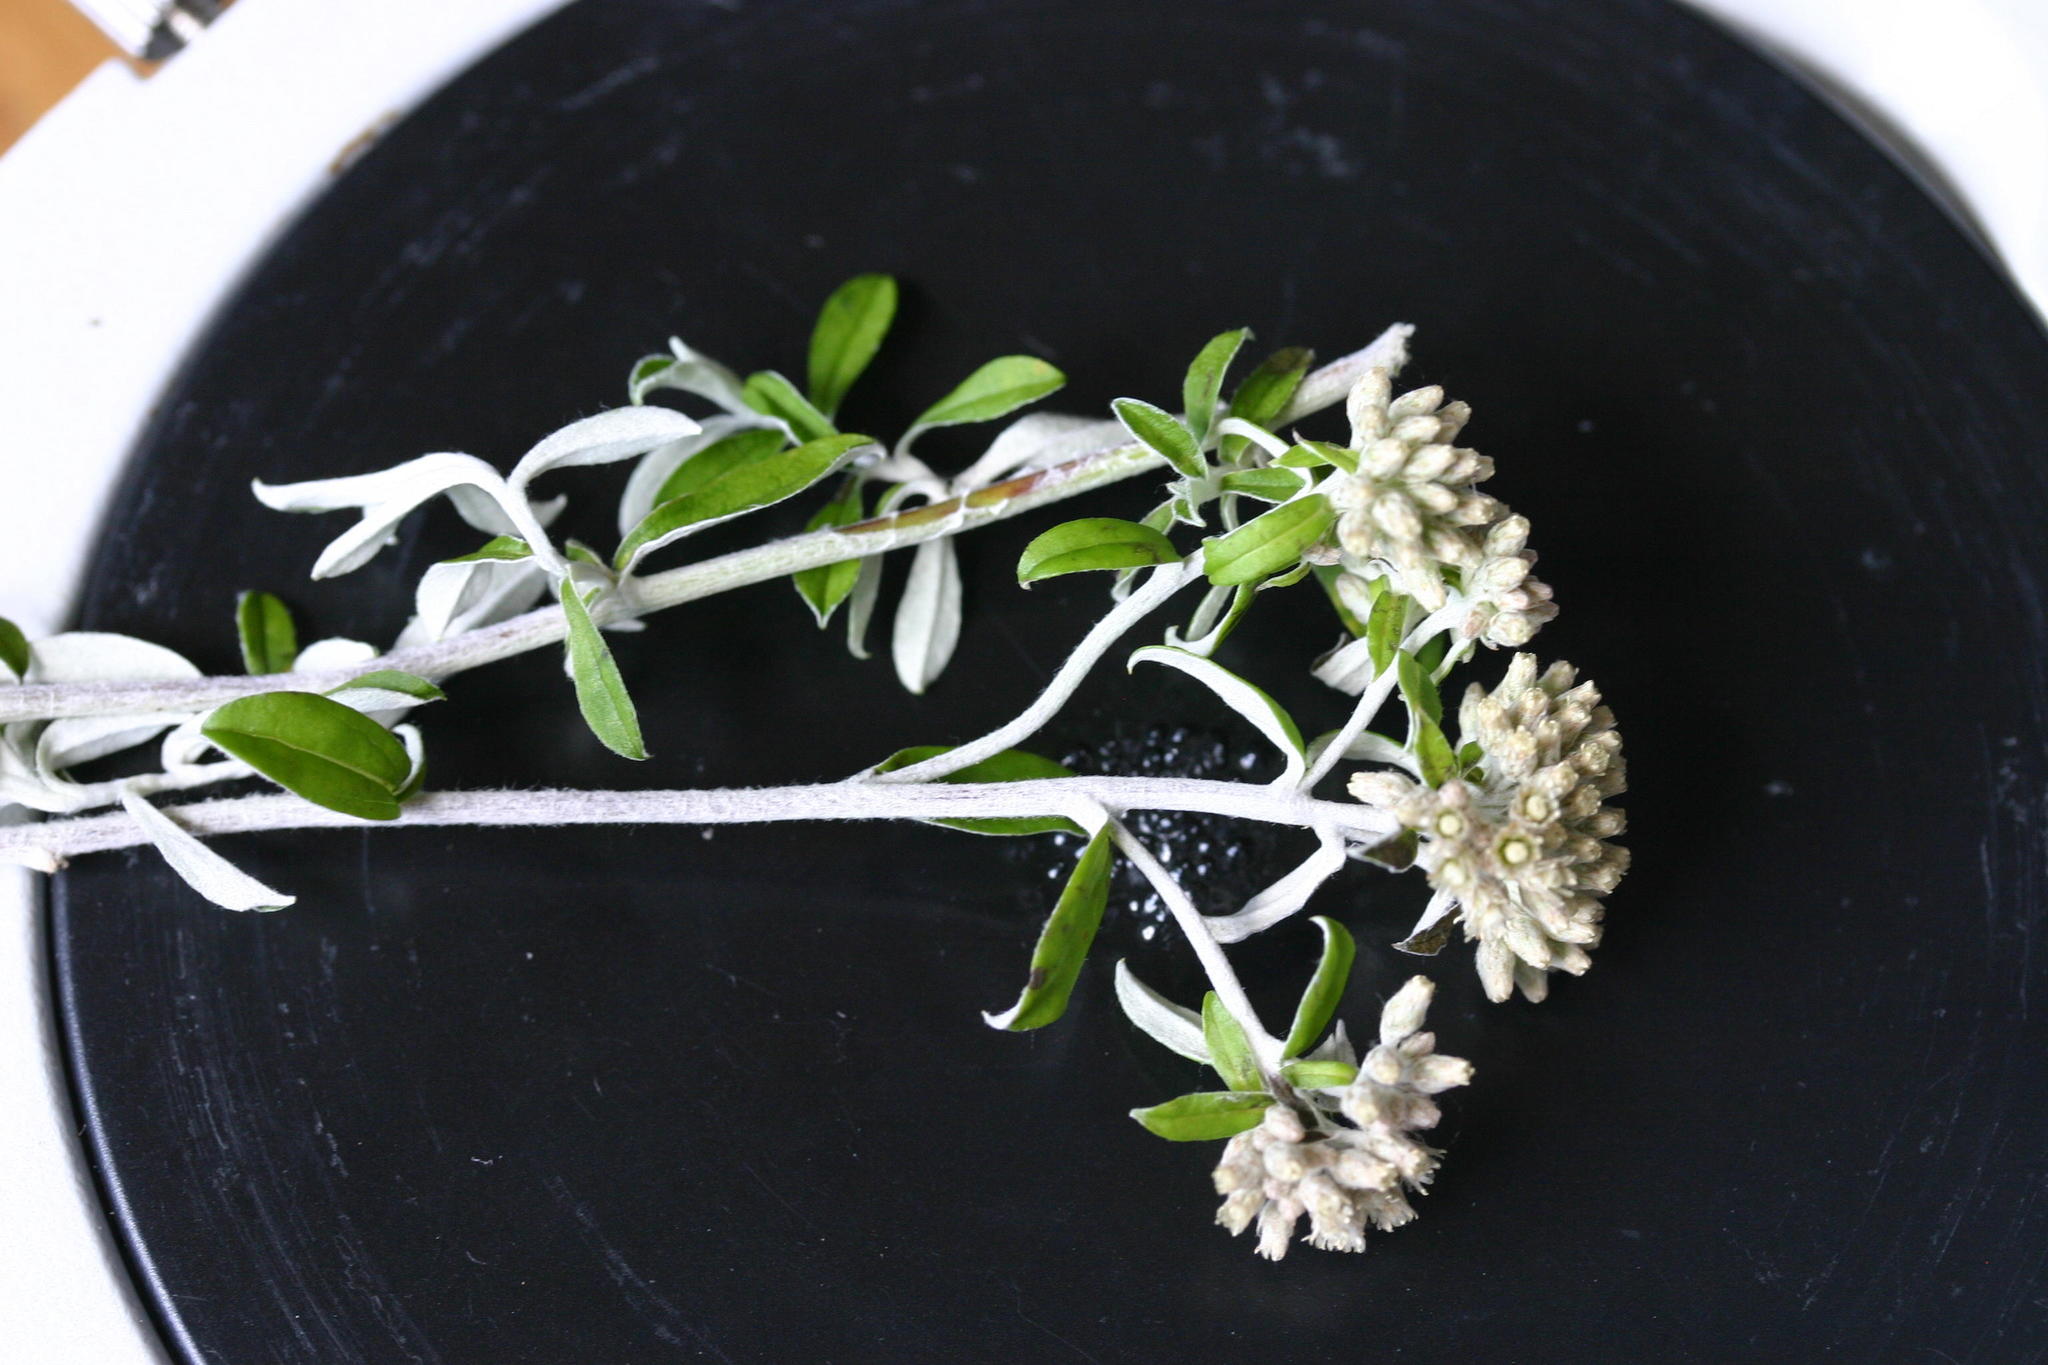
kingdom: Plantae
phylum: Tracheophyta
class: Magnoliopsida
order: Asterales
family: Asteraceae
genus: Plecostachys
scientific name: Plecostachys polifolia
